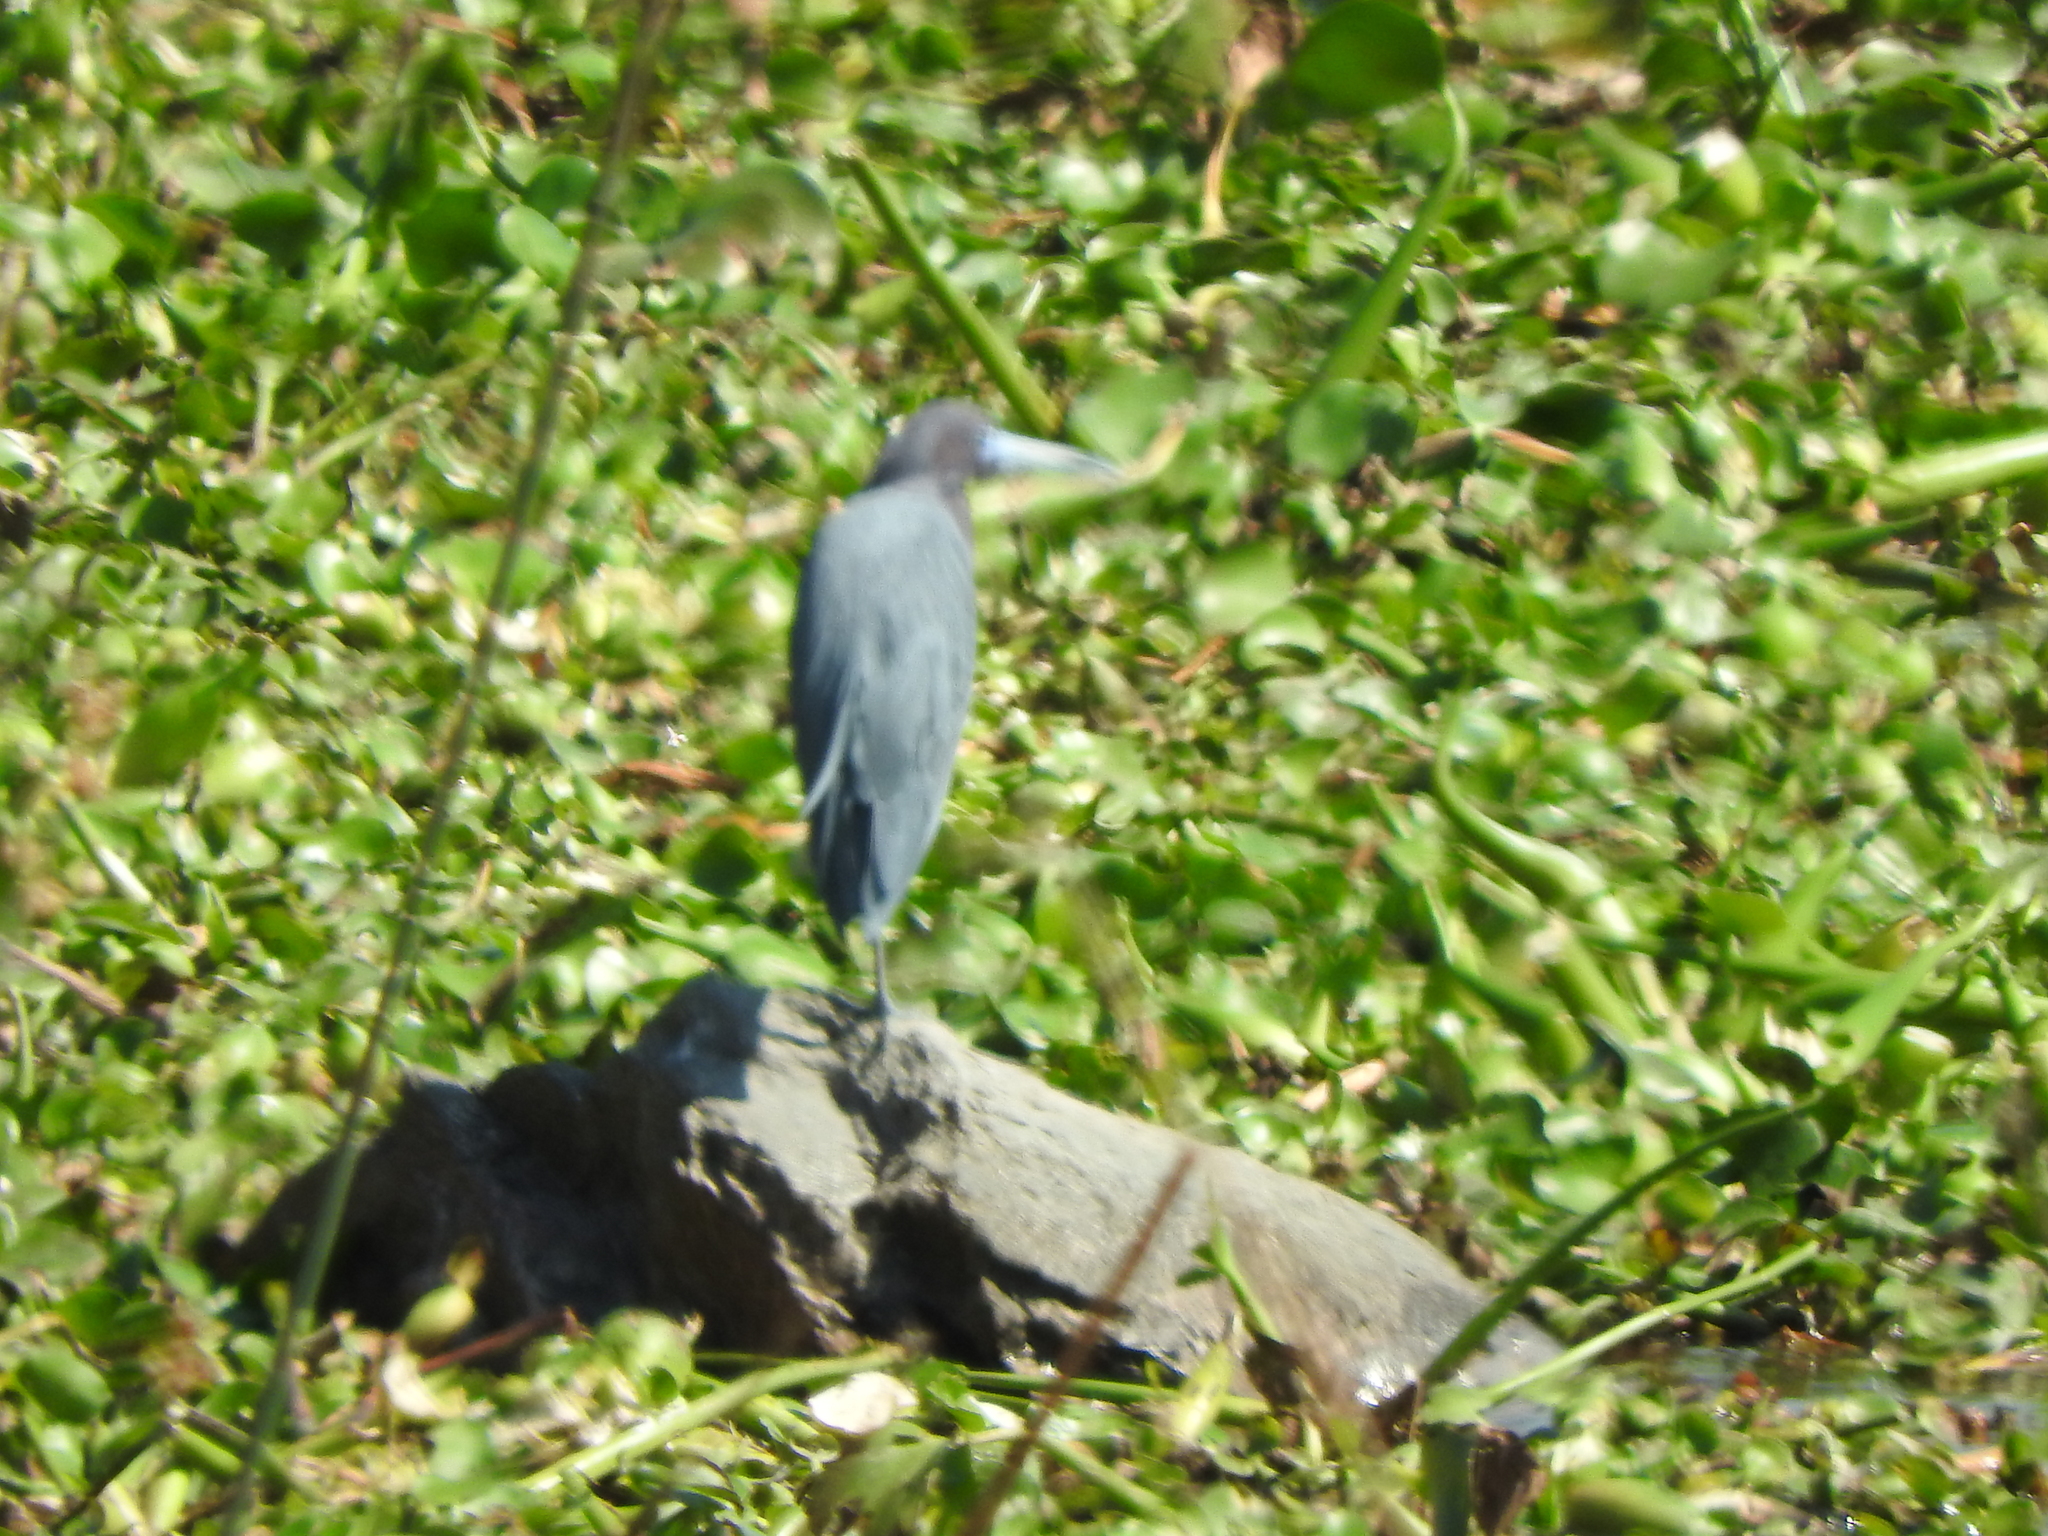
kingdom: Animalia
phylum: Chordata
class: Aves
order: Pelecaniformes
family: Ardeidae
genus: Egretta
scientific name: Egretta caerulea
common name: Little blue heron
